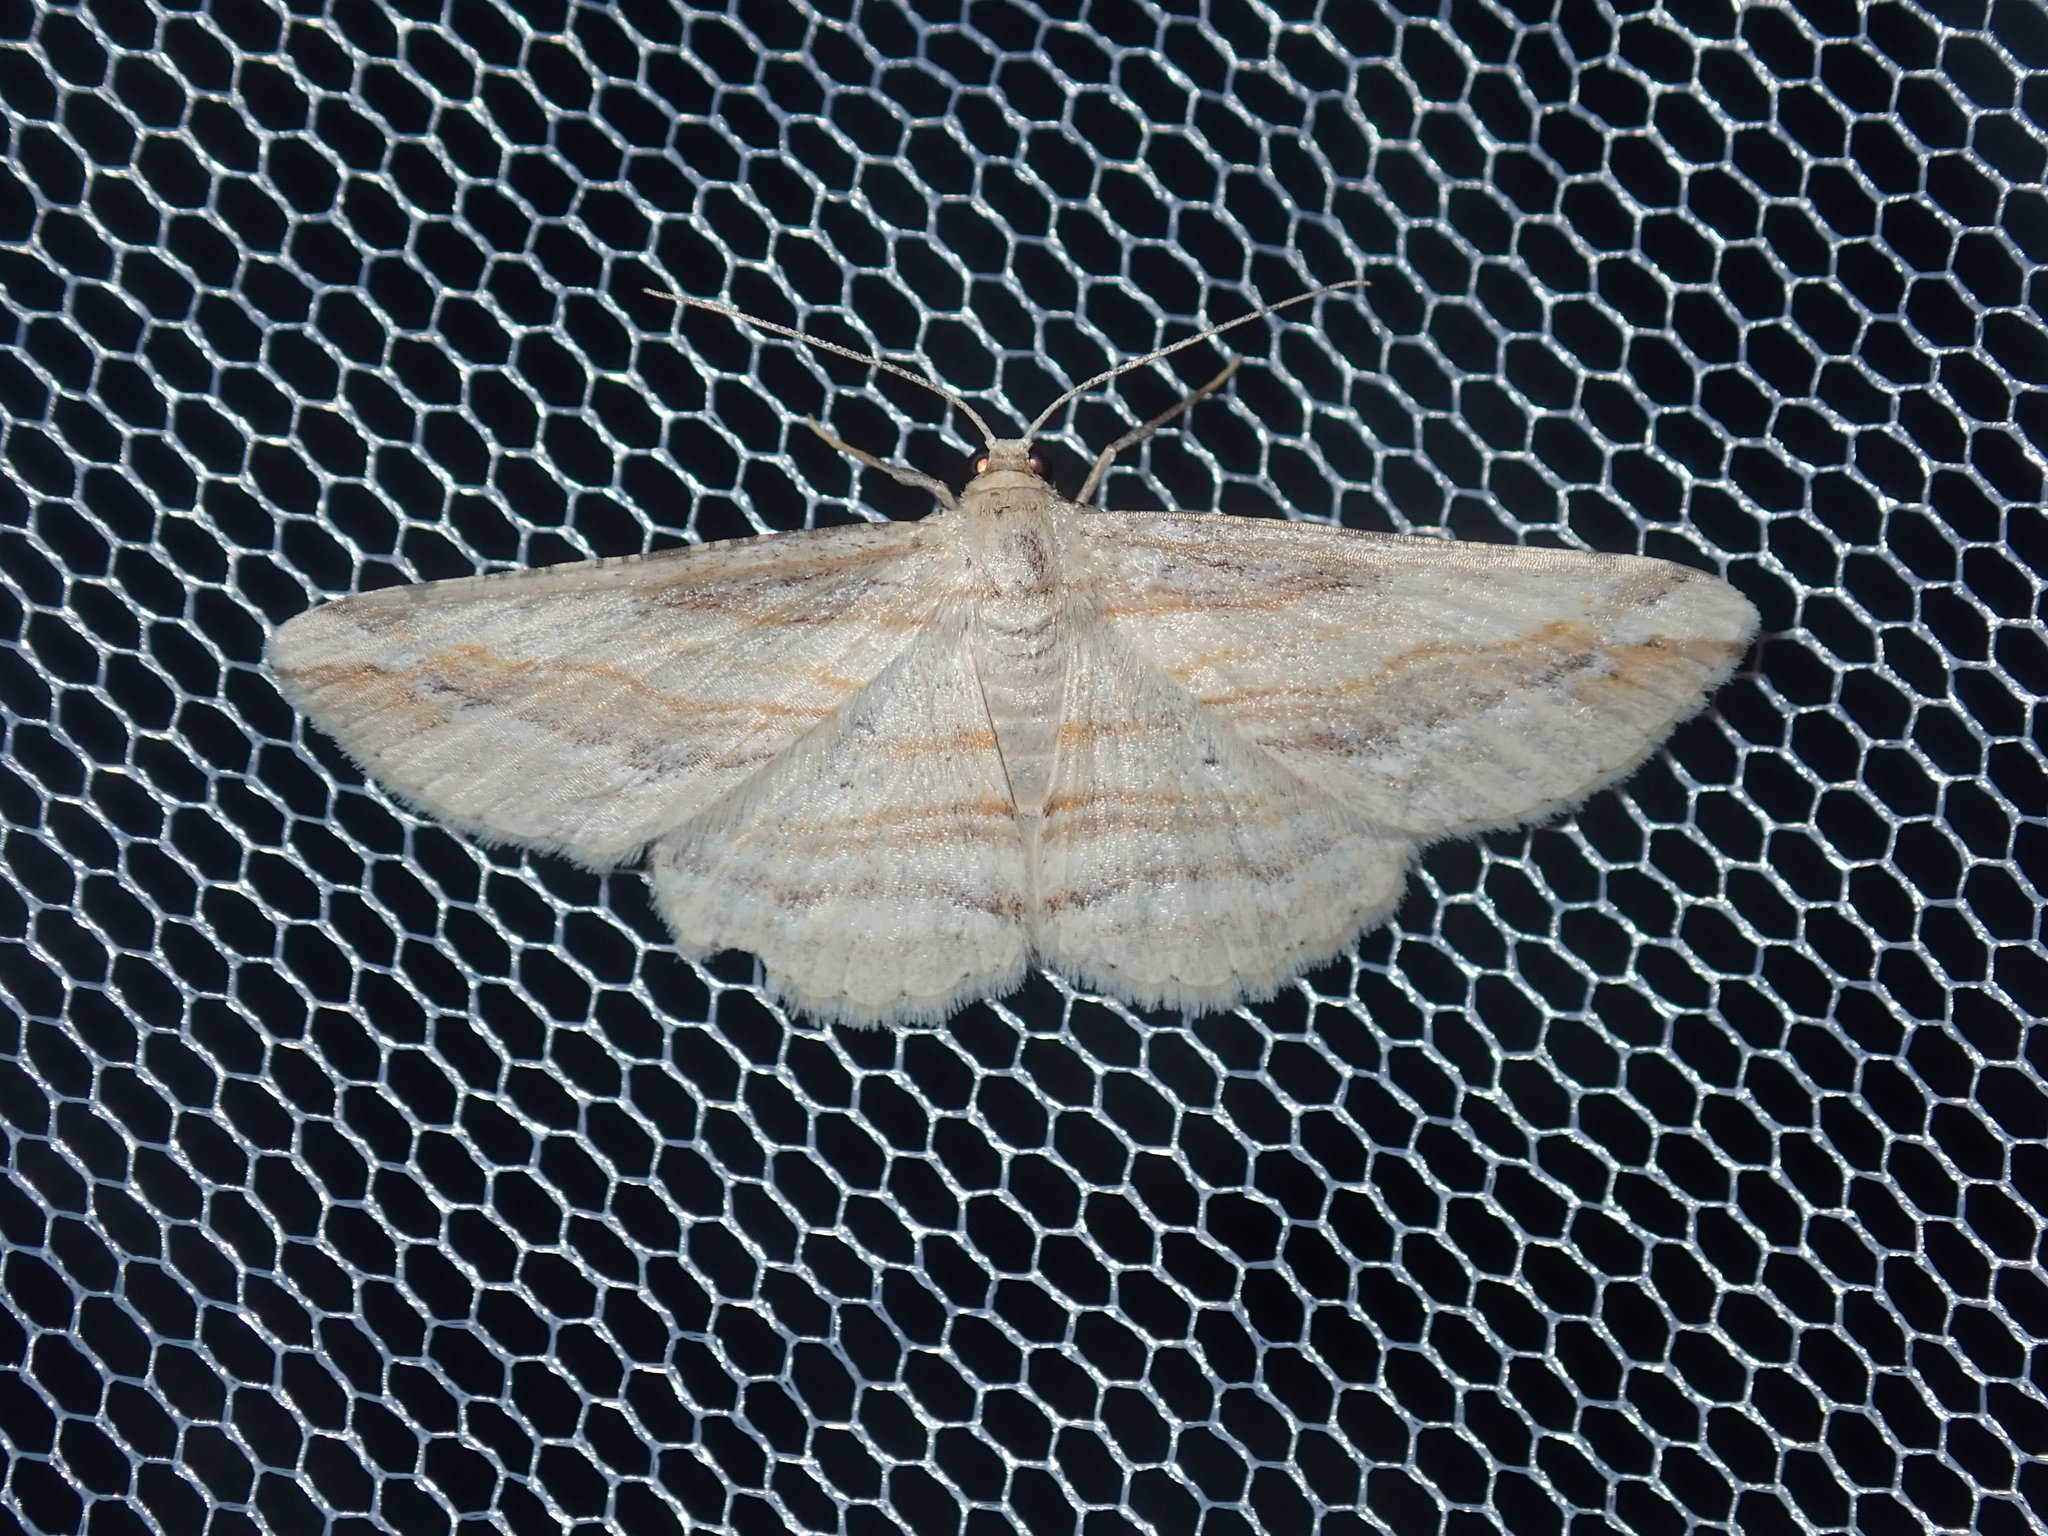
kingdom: Animalia
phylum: Arthropoda
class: Insecta
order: Lepidoptera
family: Geometridae
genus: Syneora
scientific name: Syneora lithina
